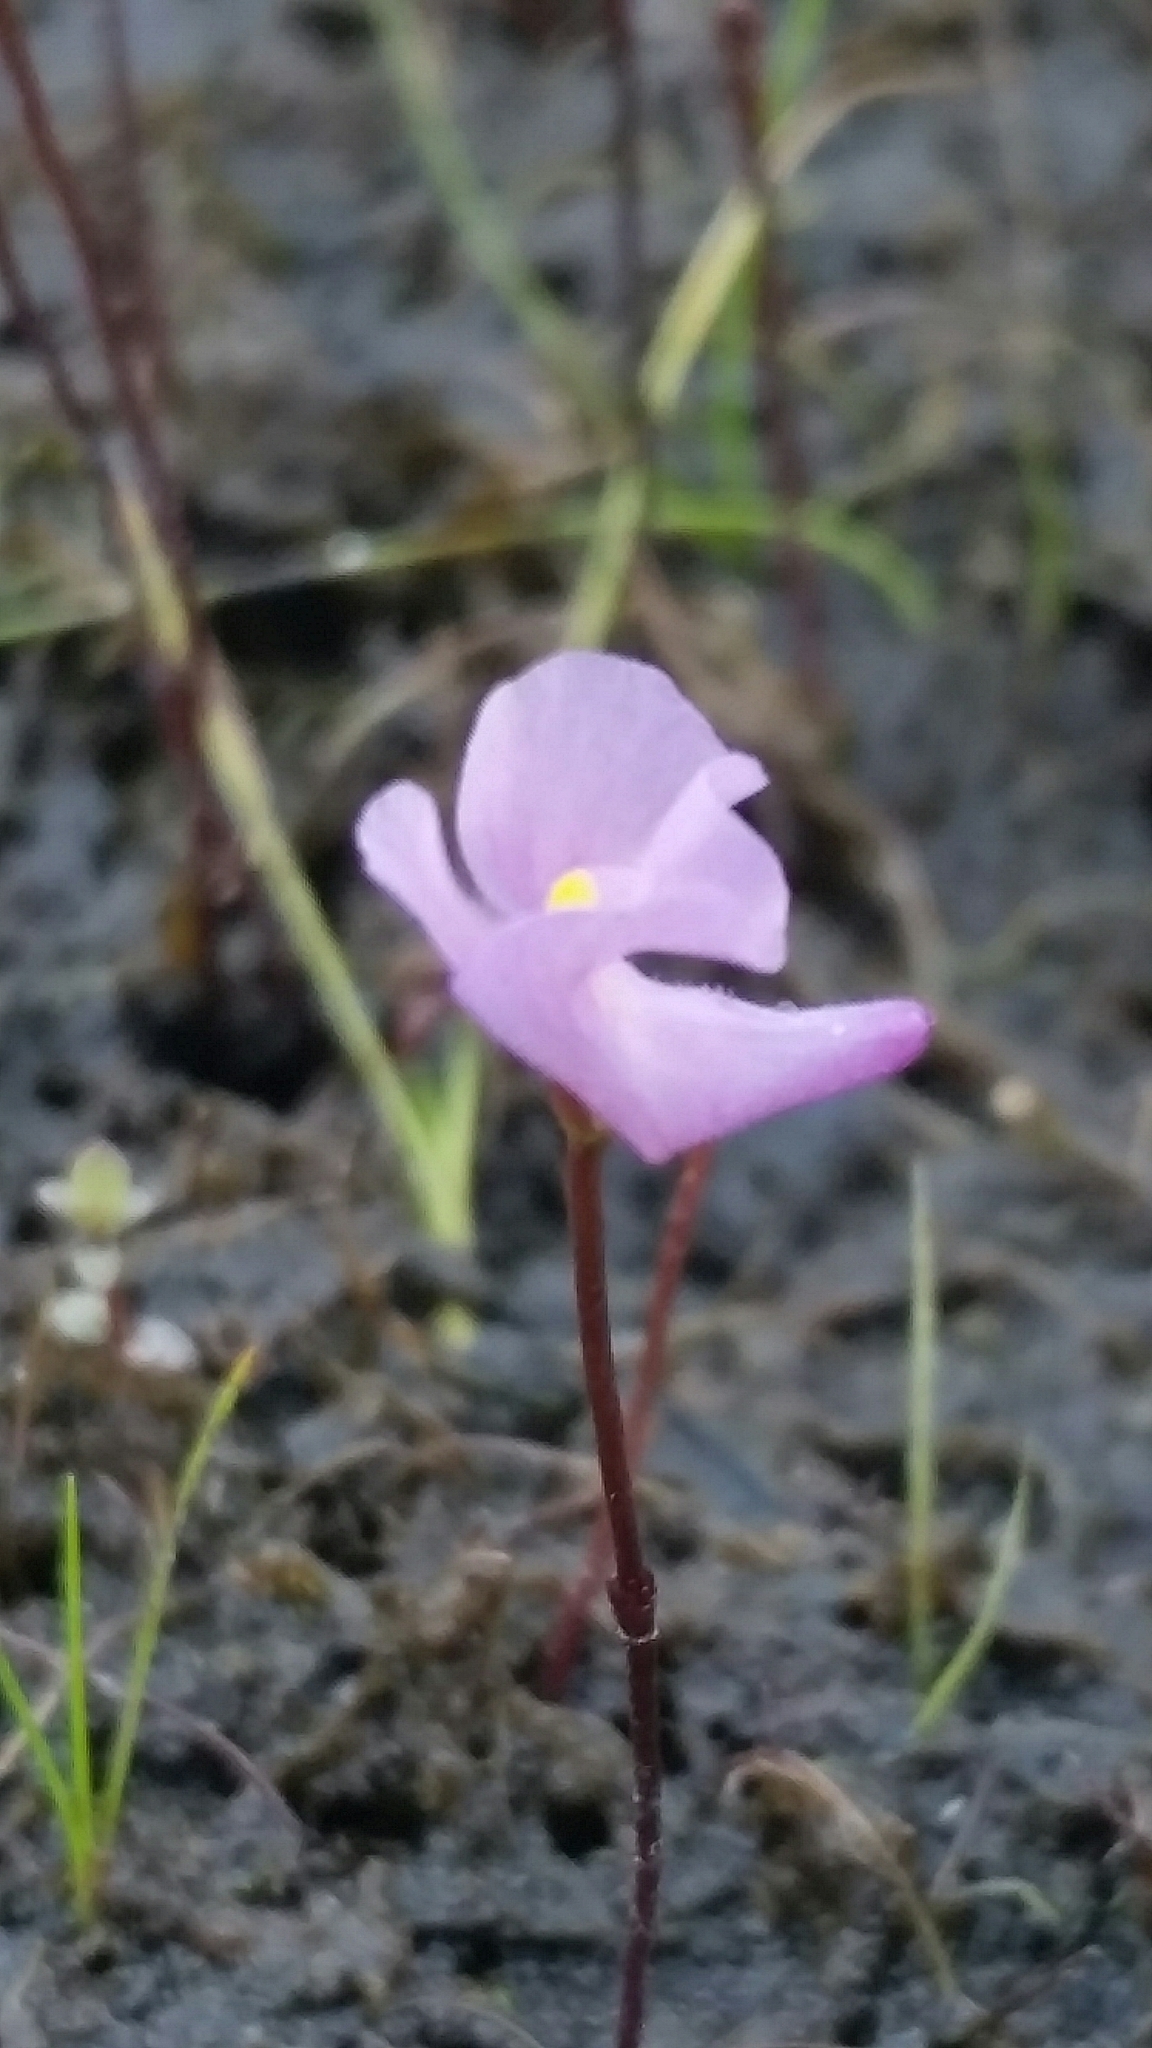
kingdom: Plantae
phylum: Tracheophyta
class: Magnoliopsida
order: Lamiales
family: Lentibulariaceae
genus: Utricularia
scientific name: Utricularia resupinata
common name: Northeastern bladderwort
